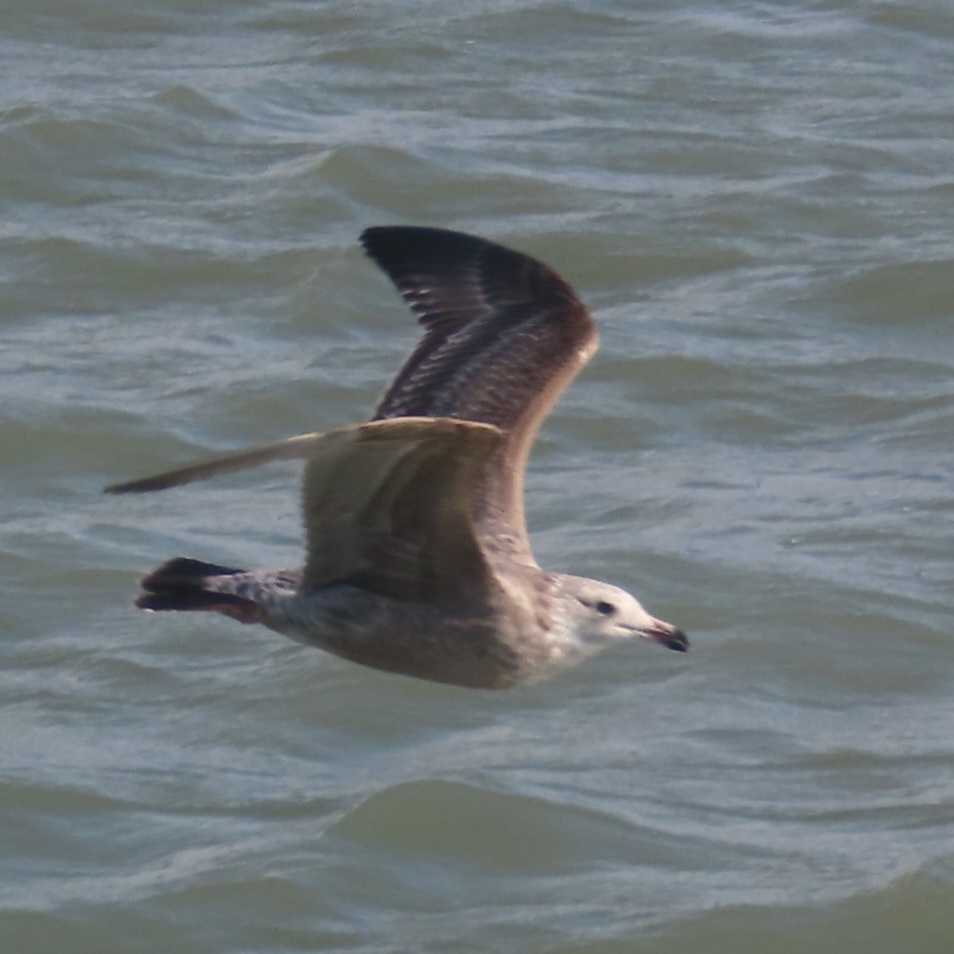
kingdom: Animalia
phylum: Chordata
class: Aves
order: Charadriiformes
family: Laridae
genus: Larus
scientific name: Larus argentatus
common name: Herring gull
